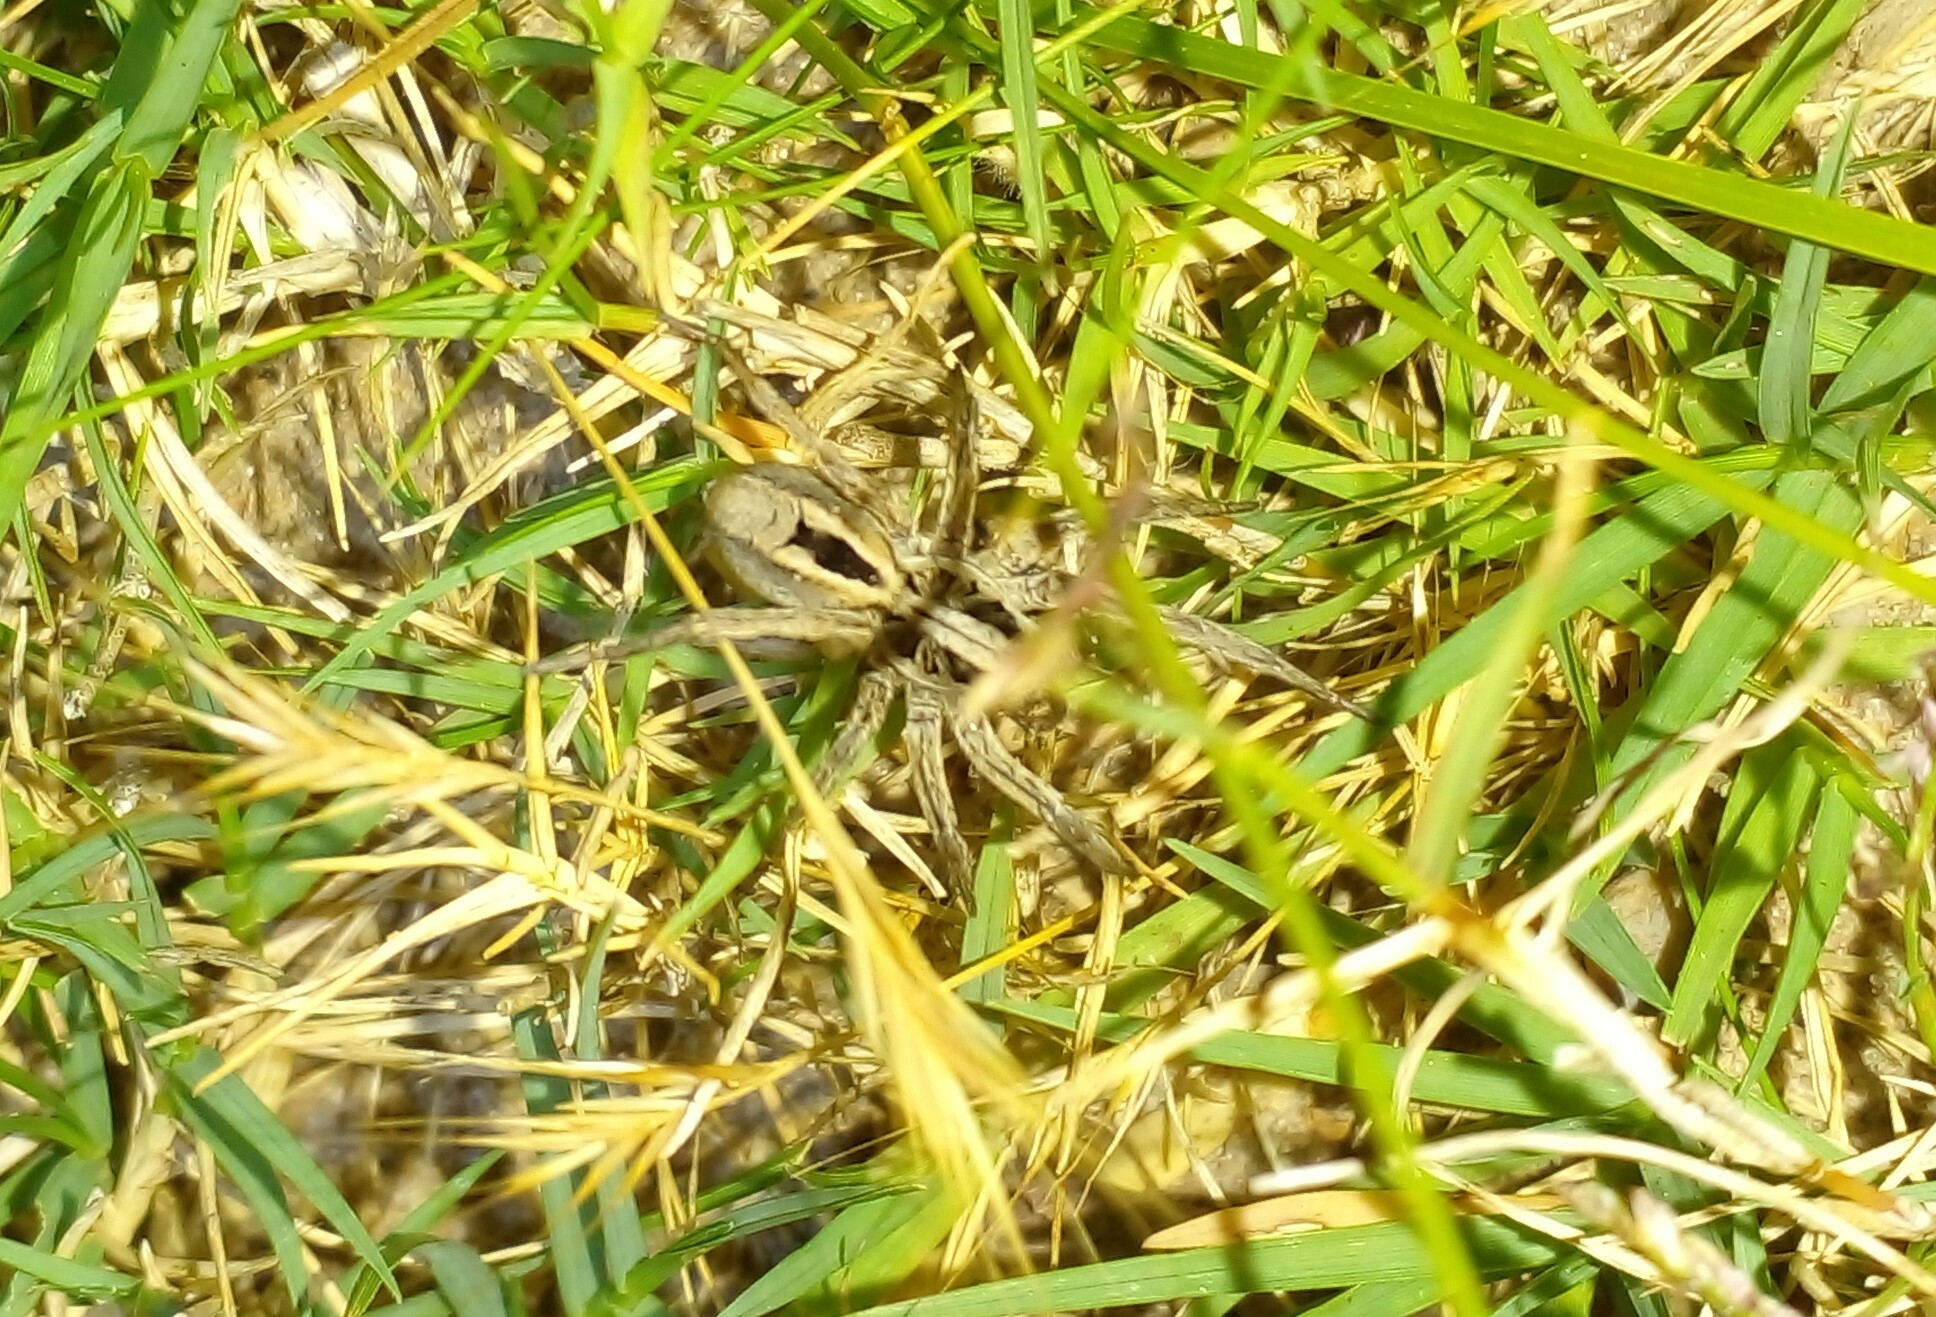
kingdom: Animalia
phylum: Arthropoda
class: Arachnida
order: Araneae
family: Lycosidae
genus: Hogna
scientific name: Hogna birabeni
